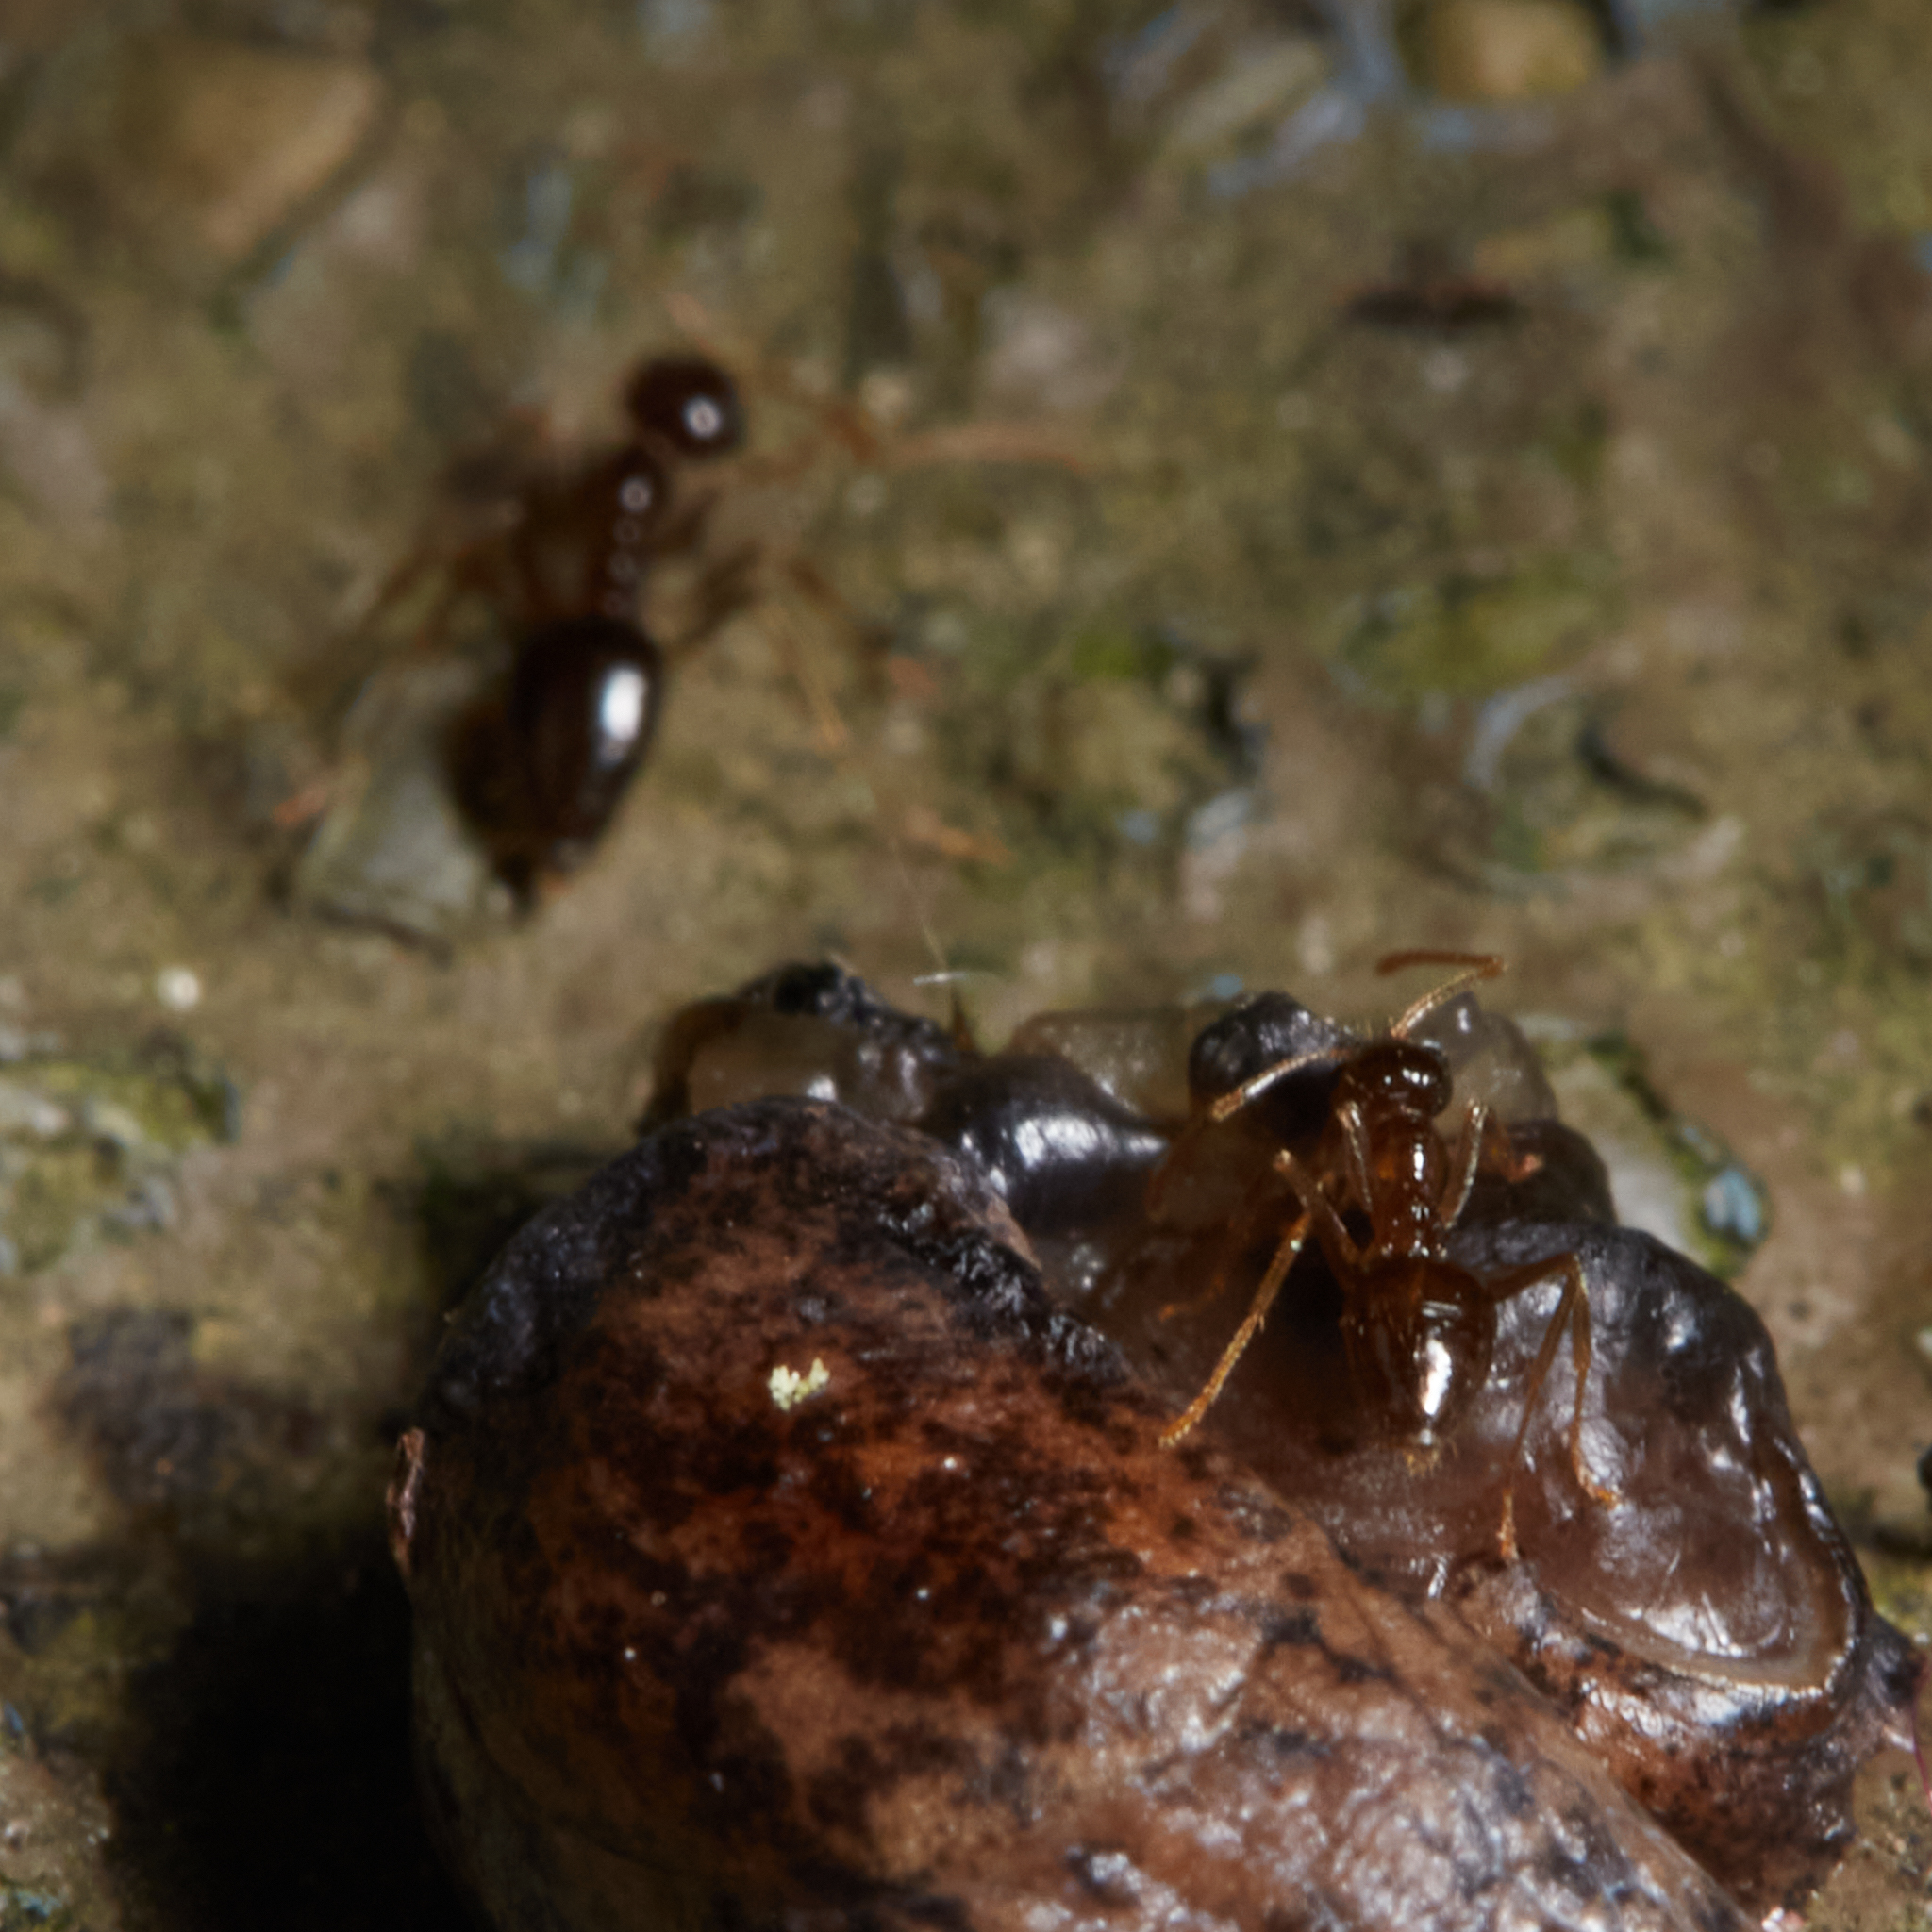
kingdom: Animalia
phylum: Arthropoda
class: Insecta
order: Hymenoptera
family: Formicidae
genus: Prenolepis
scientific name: Prenolepis imparis
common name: Small honey ant
